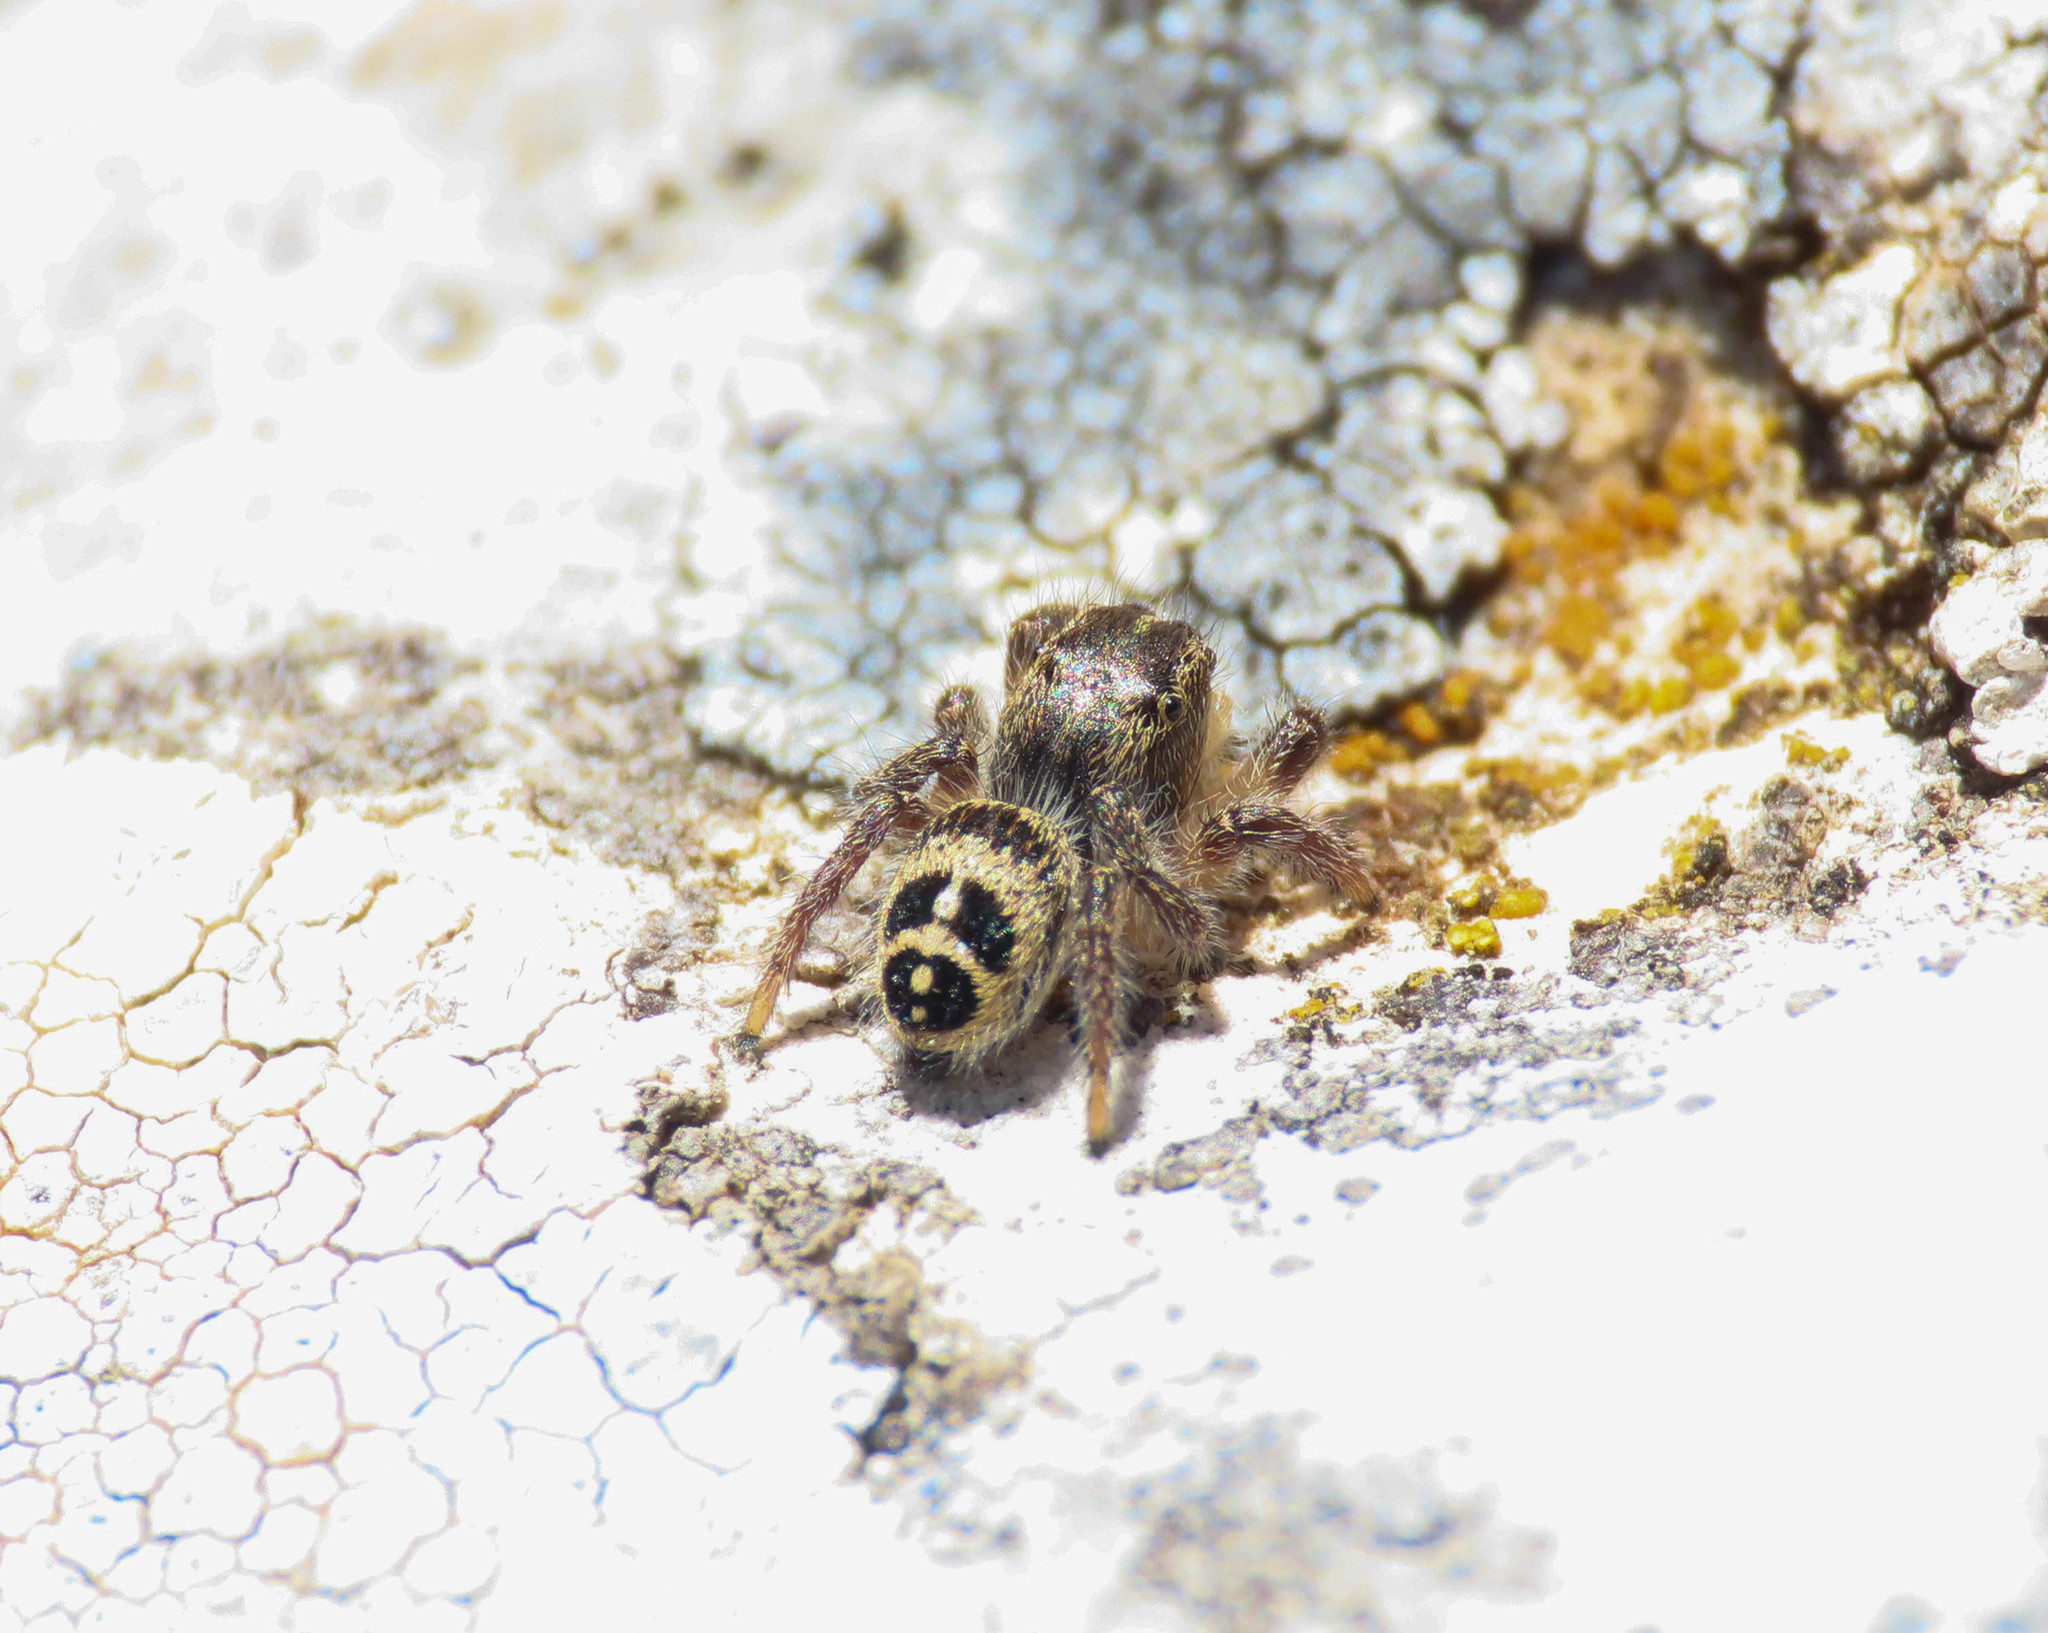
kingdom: Animalia
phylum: Arthropoda
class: Arachnida
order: Araneae
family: Salticidae
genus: Pellenes
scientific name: Pellenes tripunctatus
